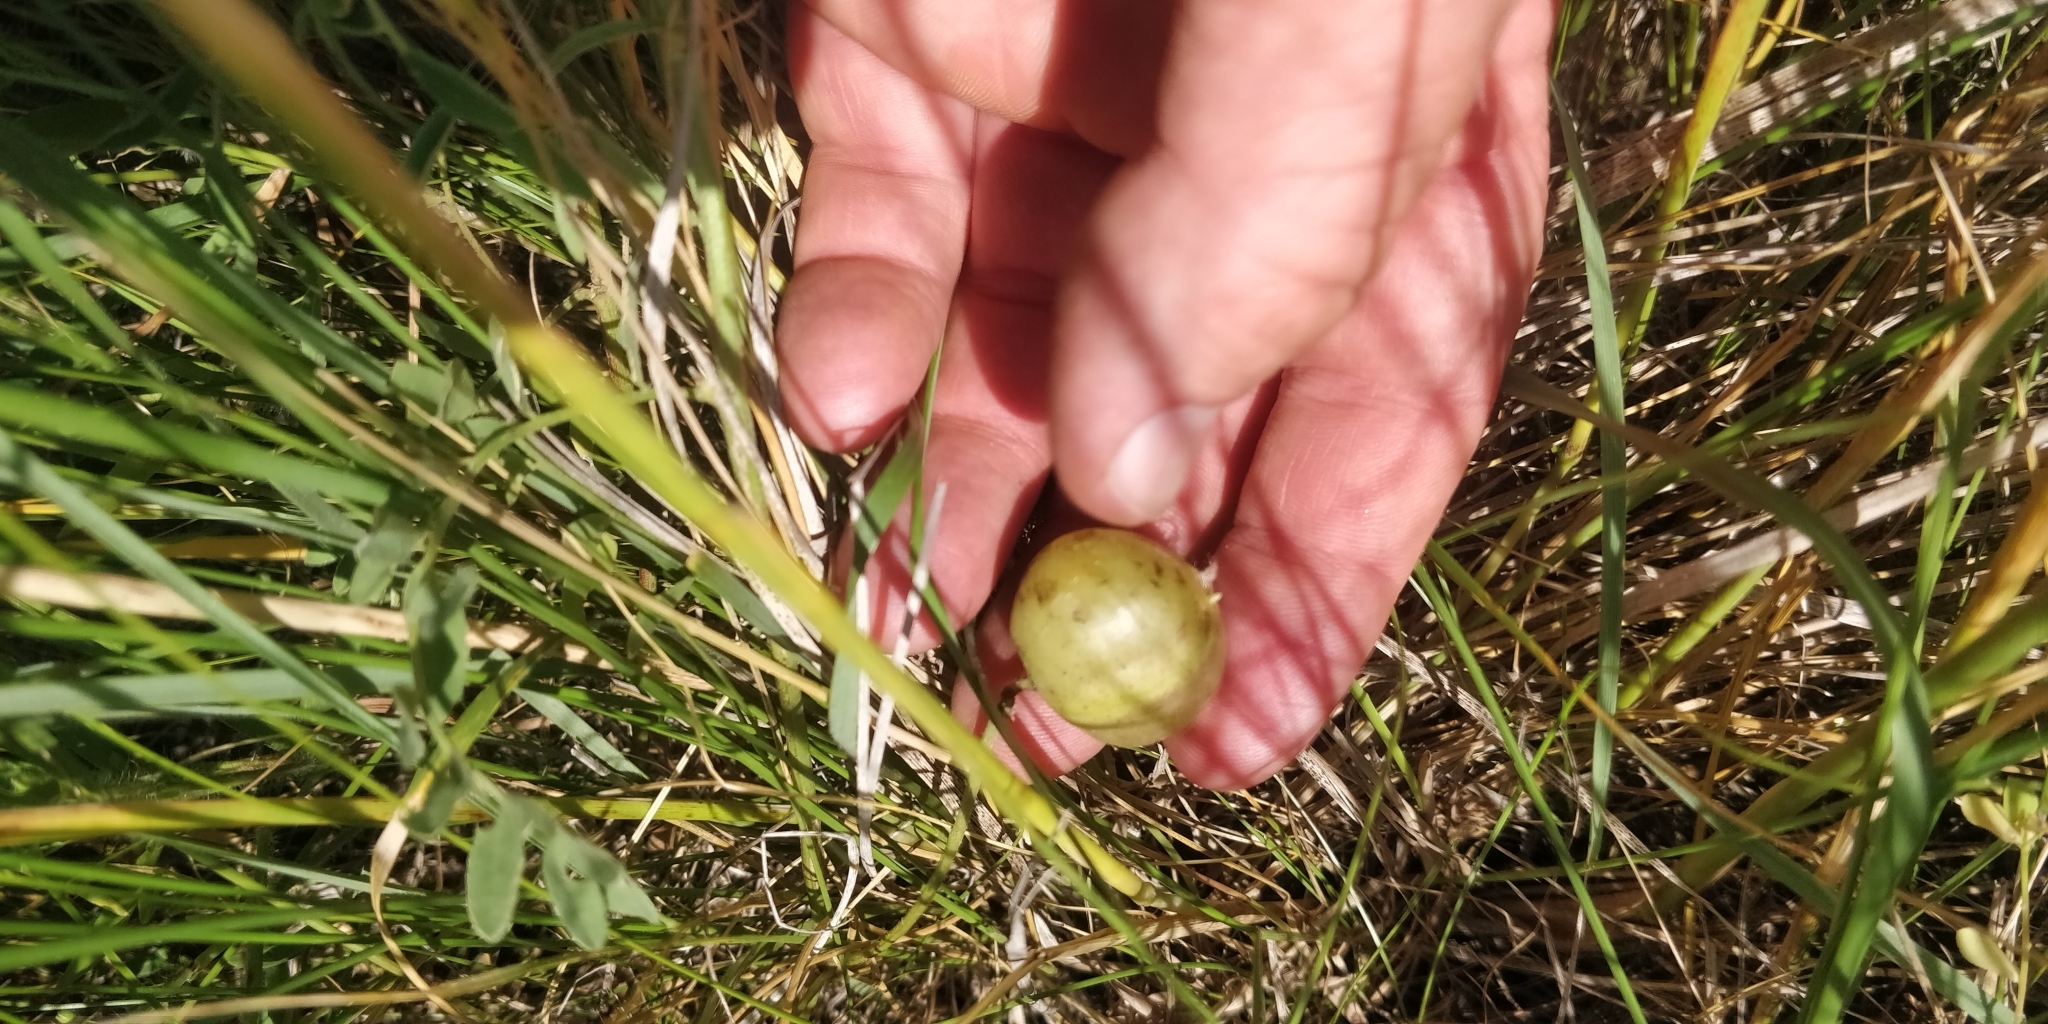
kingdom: Plantae
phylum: Tracheophyta
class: Magnoliopsida
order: Fabales
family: Fabaceae
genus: Astragalus
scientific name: Astragalus crassicarpus
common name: Ground-plum milk-vetch
